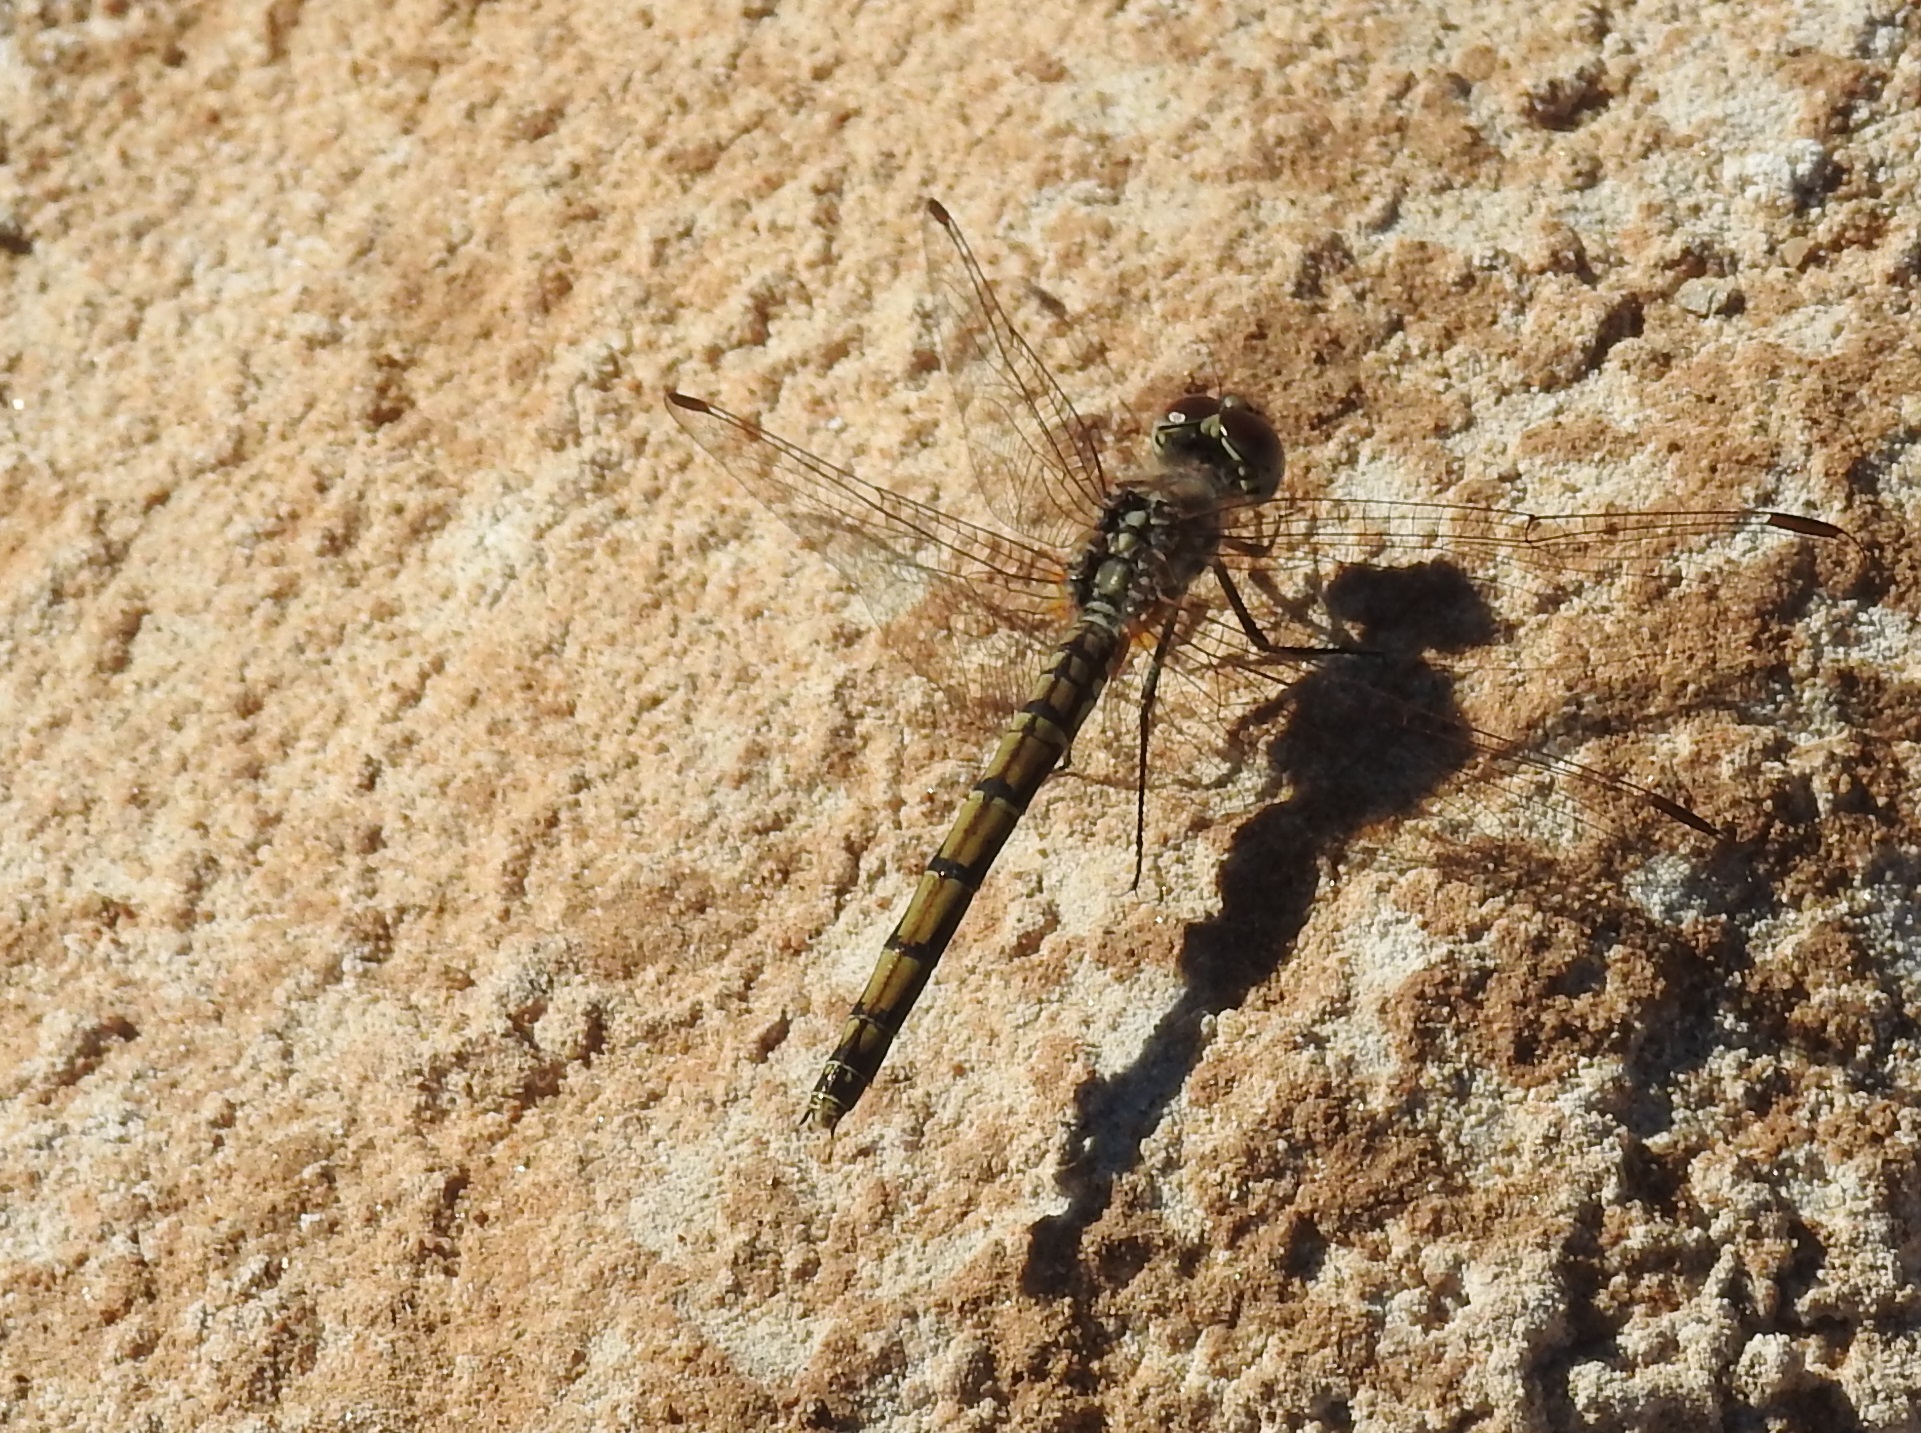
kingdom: Animalia
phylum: Arthropoda
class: Insecta
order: Odonata
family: Libellulidae
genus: Trithemis
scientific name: Trithemis arteriosa
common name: Red-veined dropwing
